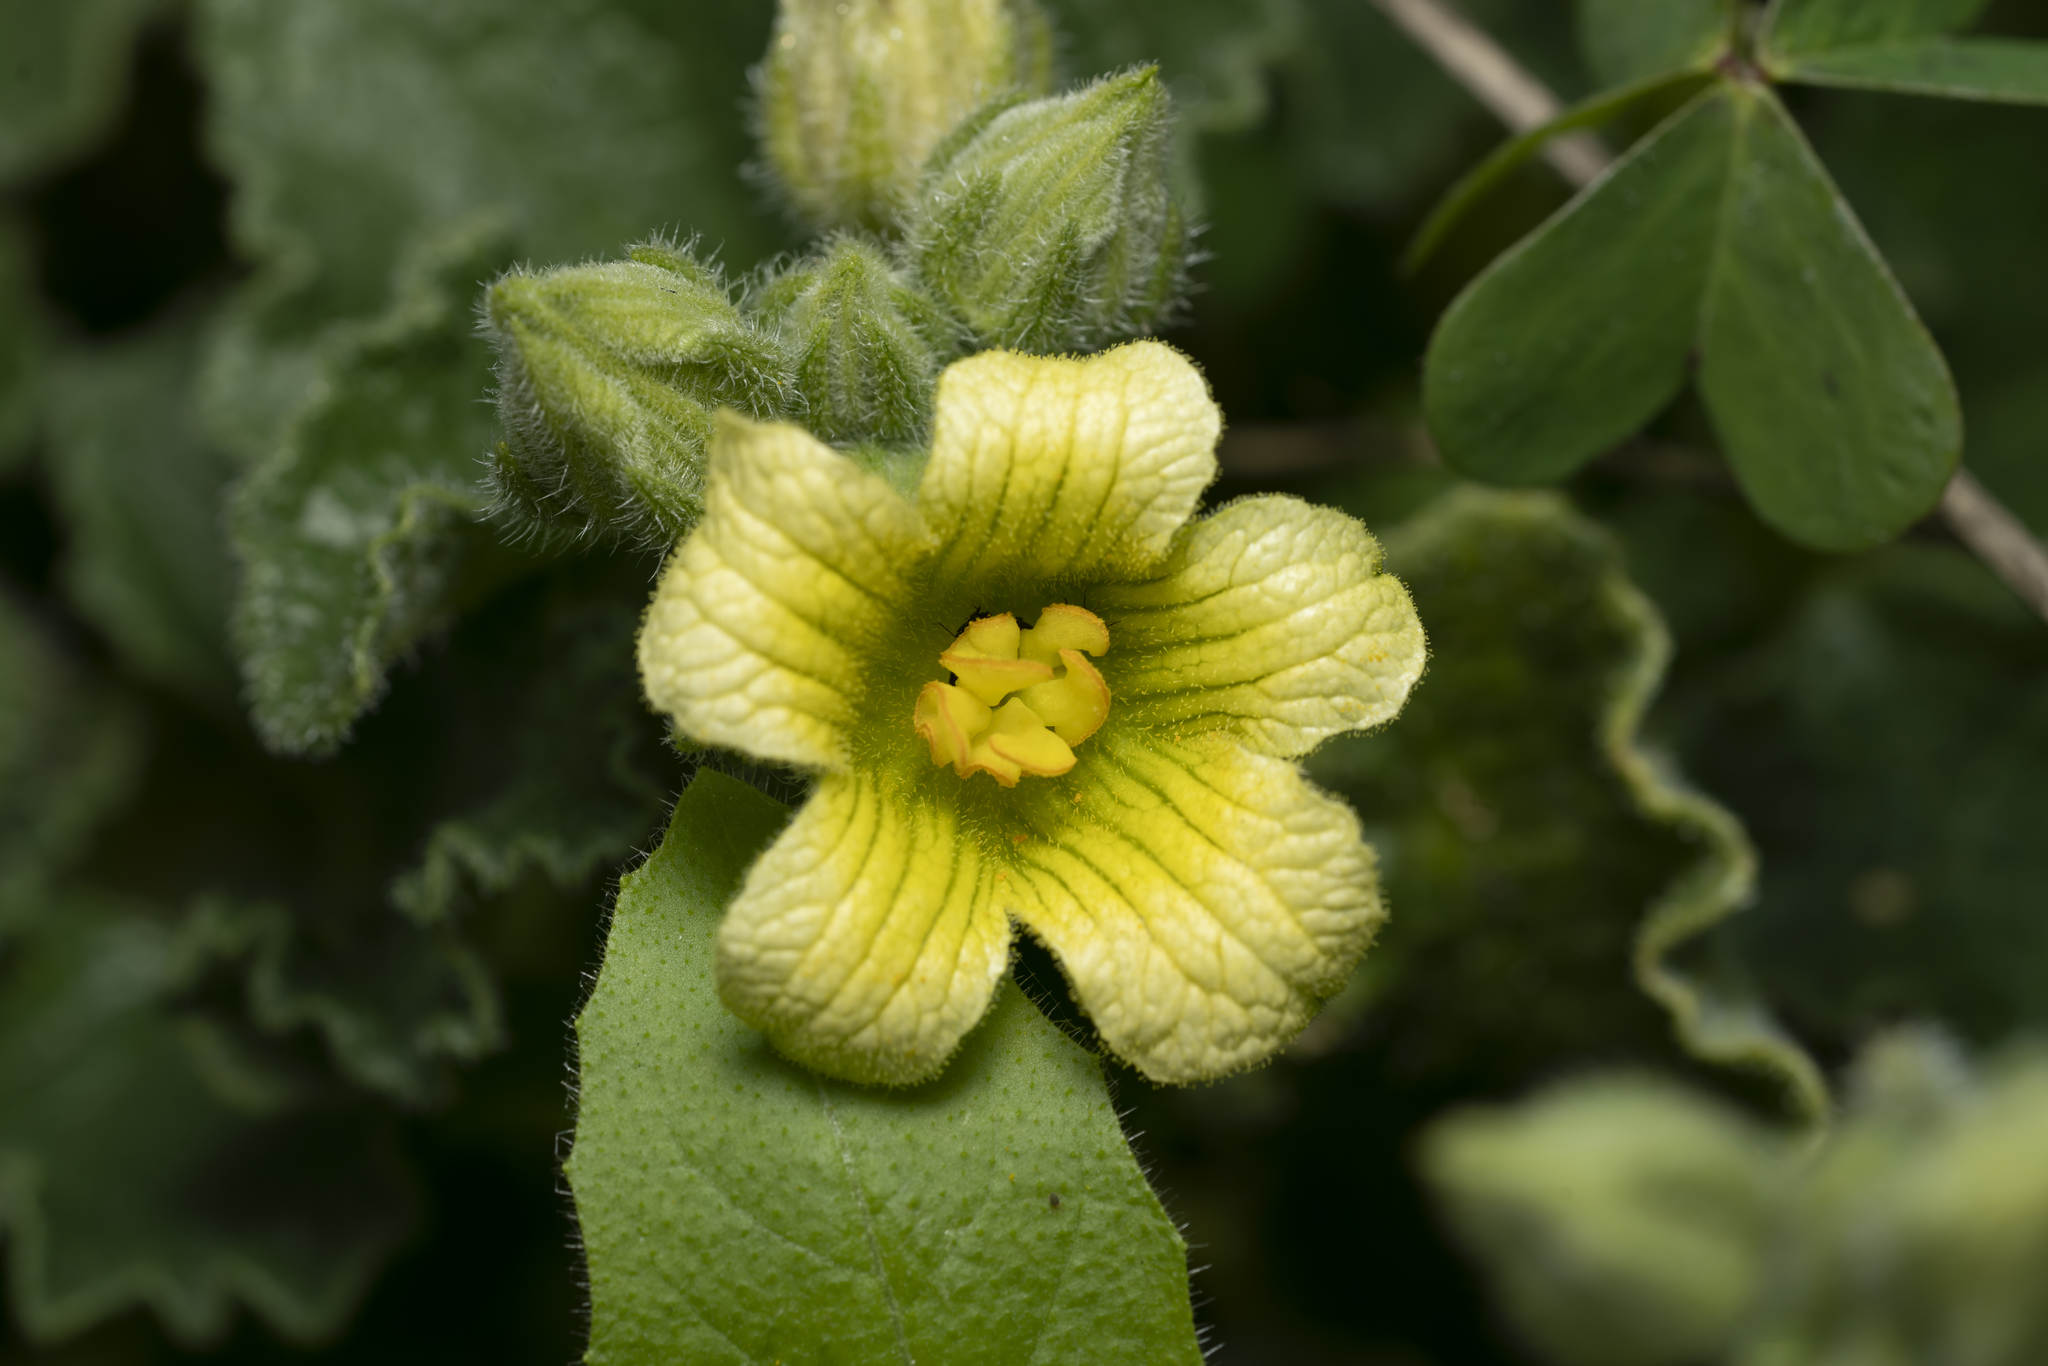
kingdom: Plantae
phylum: Tracheophyta
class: Magnoliopsida
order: Cucurbitales
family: Cucurbitaceae
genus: Ecballium
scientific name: Ecballium elaterium
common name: Squirting cucumber
